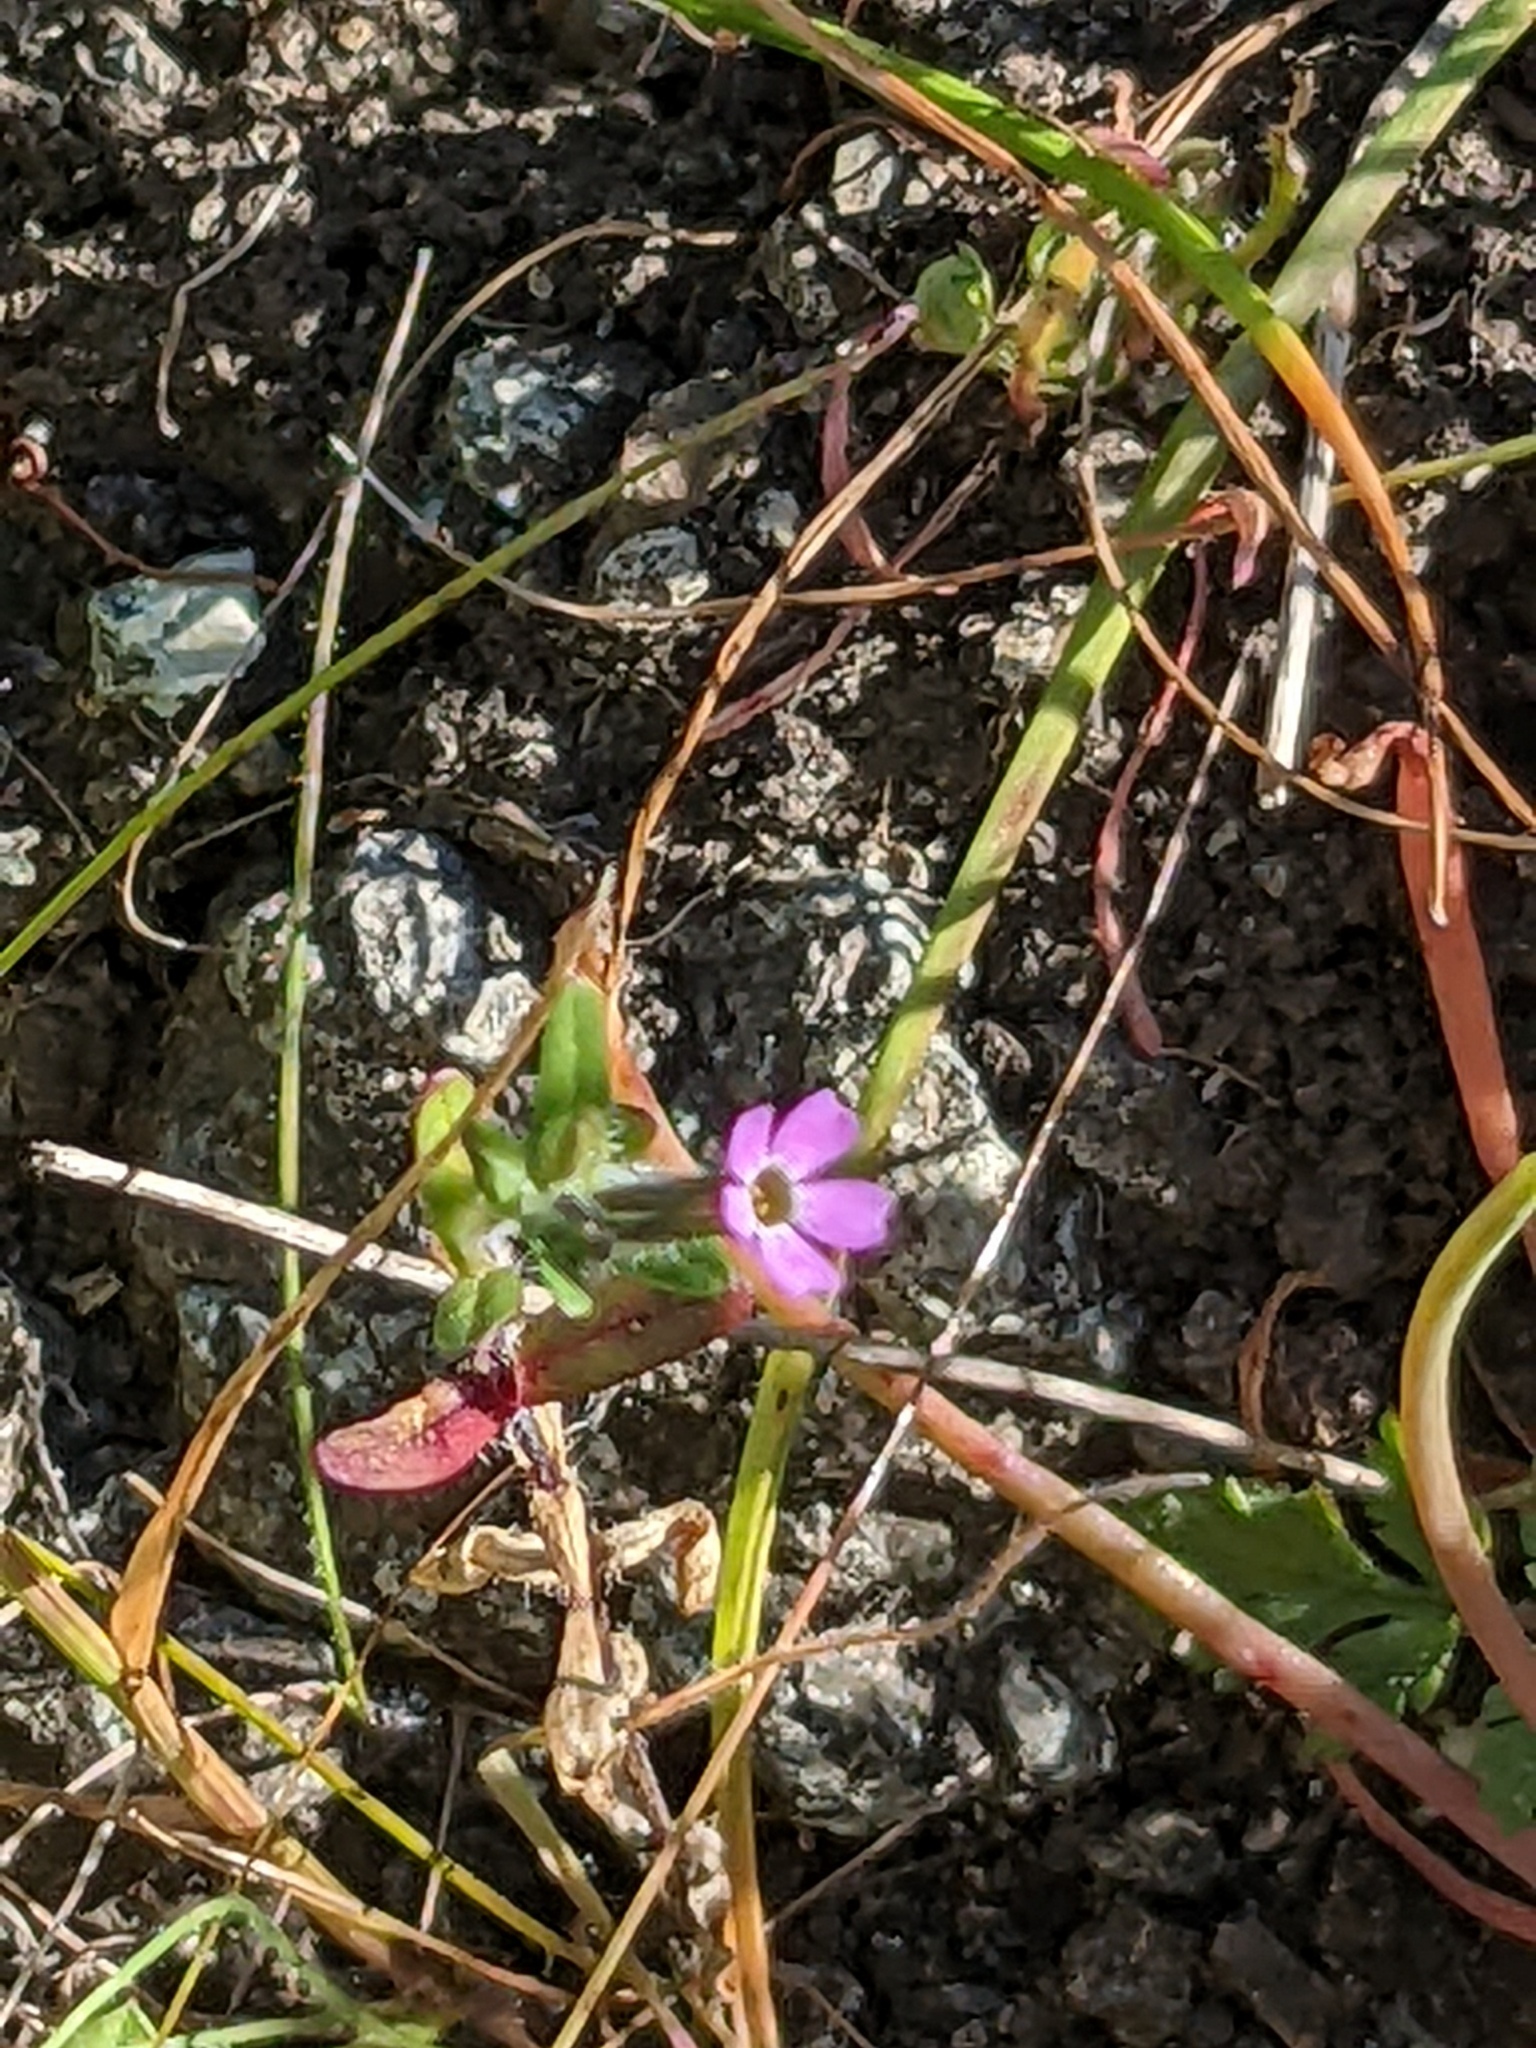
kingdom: Plantae
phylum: Tracheophyta
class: Magnoliopsida
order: Ericales
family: Polemoniaceae
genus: Phlox
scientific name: Phlox gracilis
